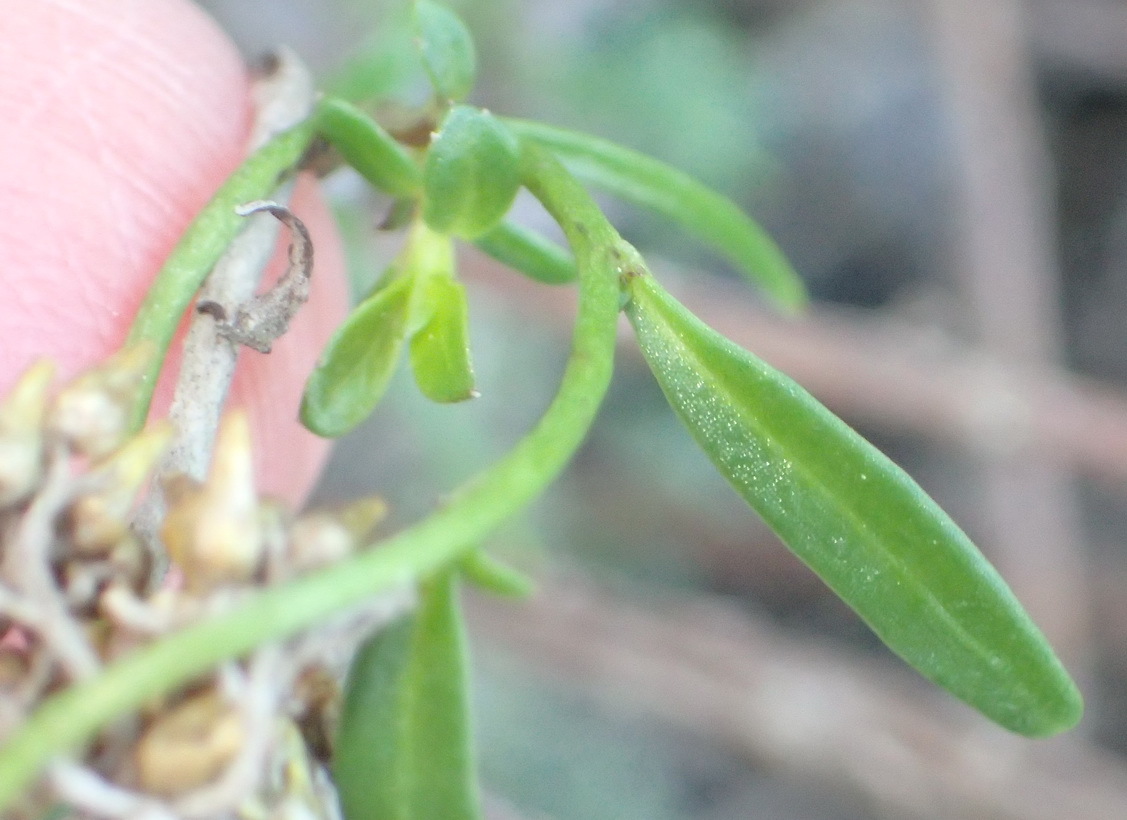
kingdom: Plantae
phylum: Tracheophyta
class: Magnoliopsida
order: Asterales
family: Campanulaceae
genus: Cyphia
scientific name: Cyphia digitata
